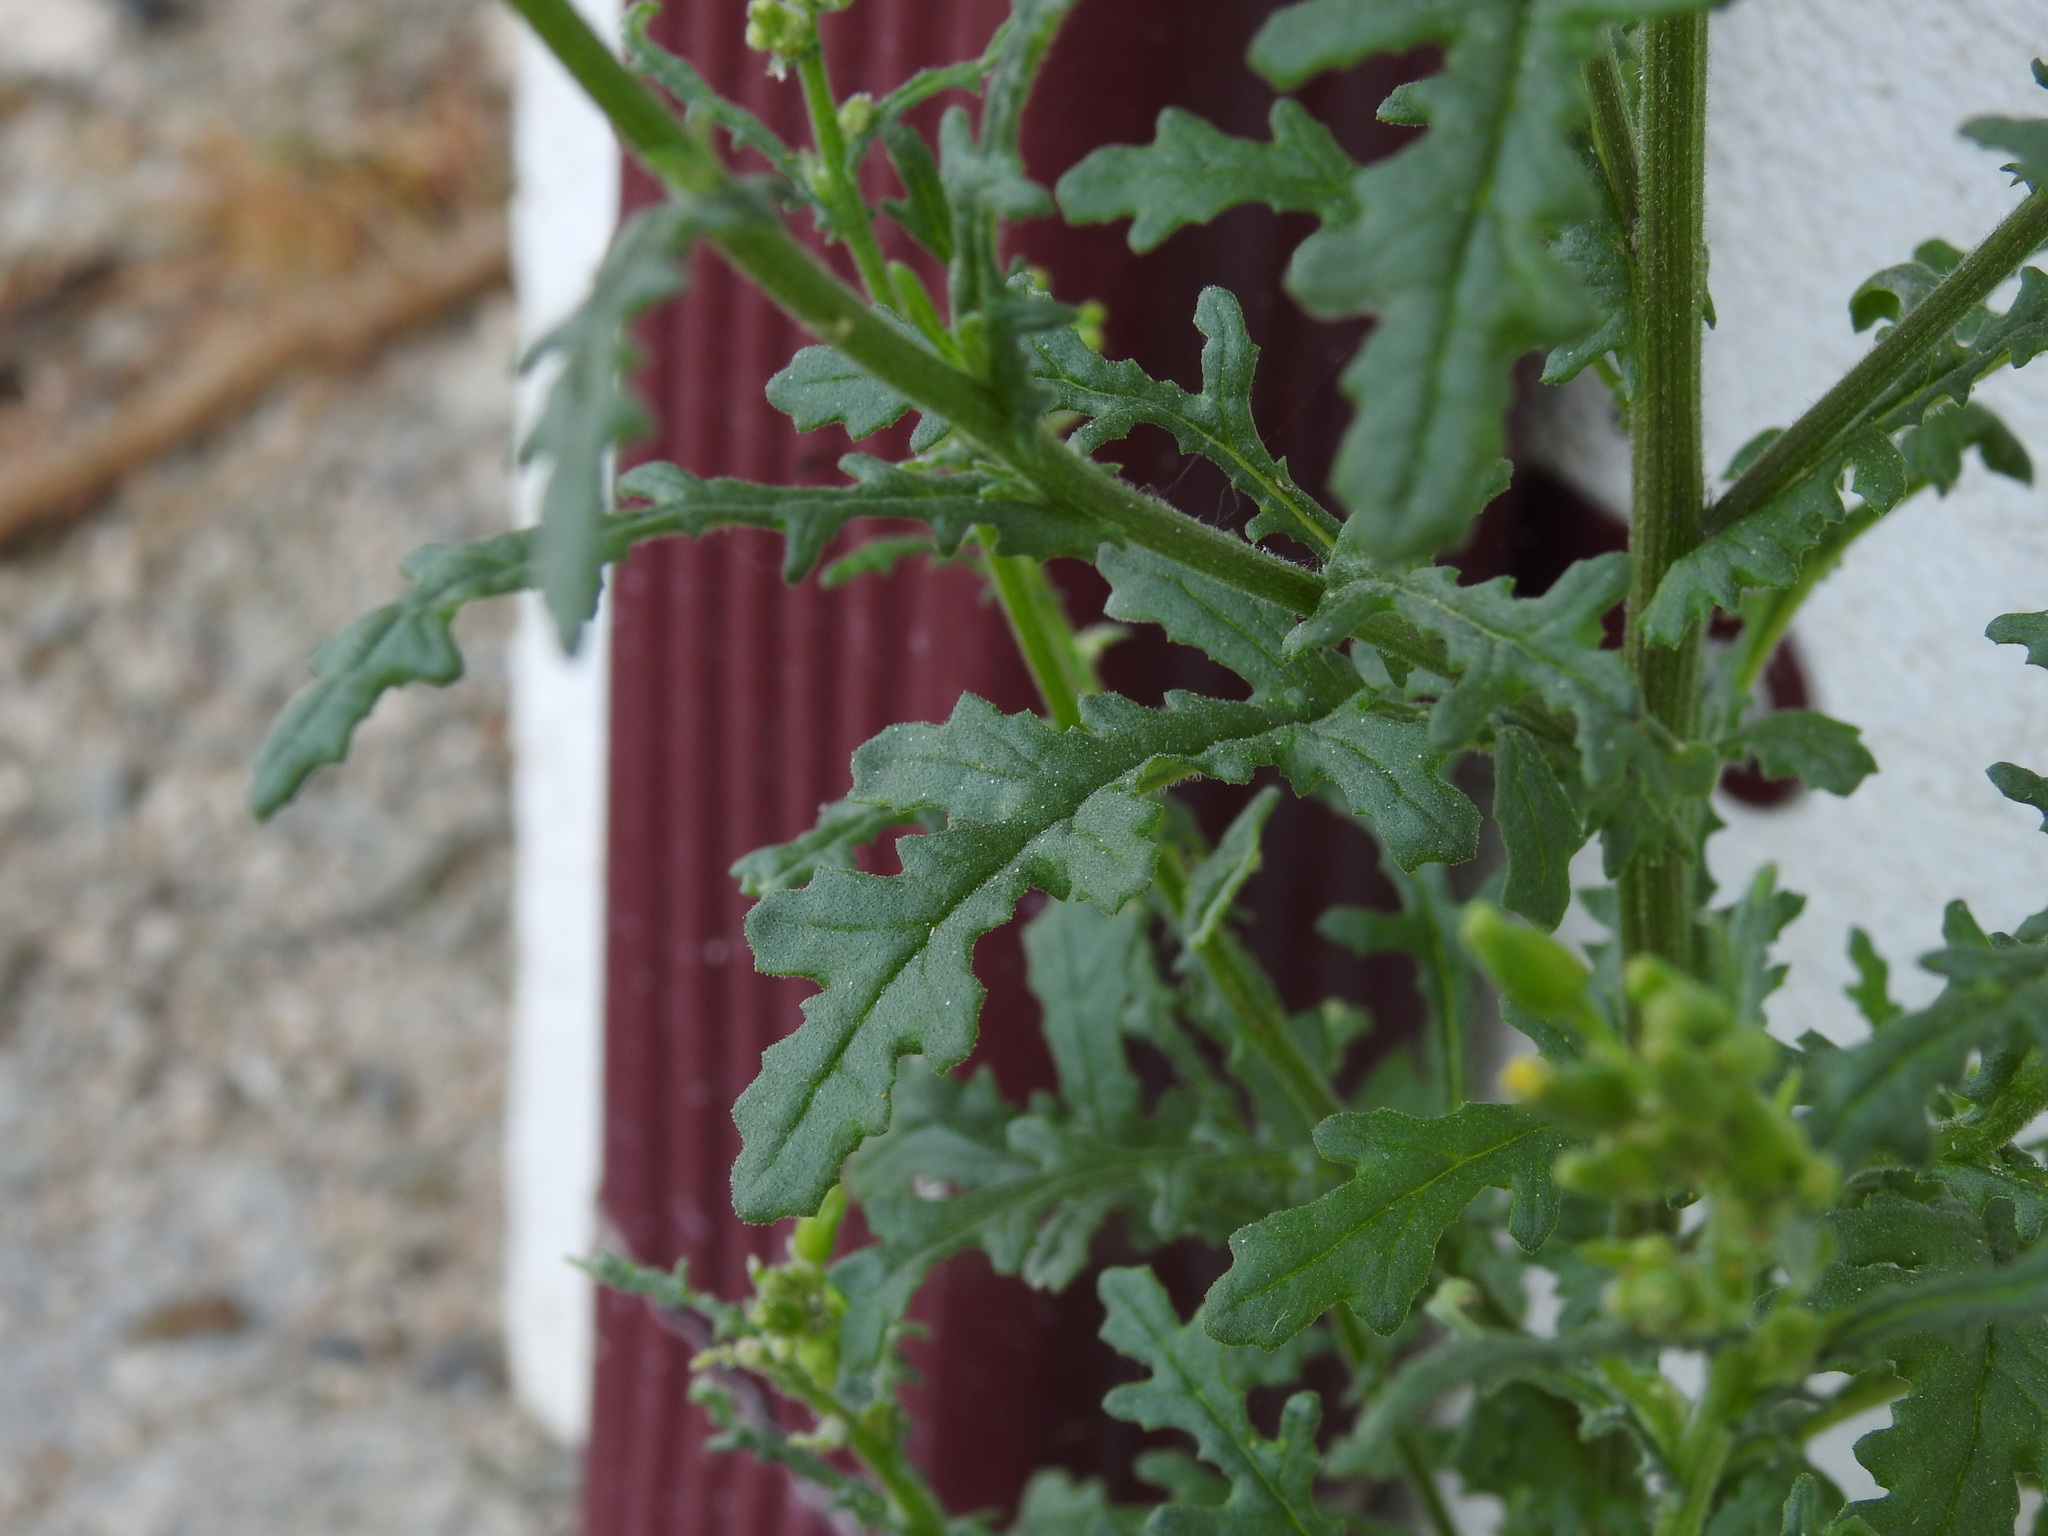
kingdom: Plantae
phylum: Tracheophyta
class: Magnoliopsida
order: Asterales
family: Asteraceae
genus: Senecio
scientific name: Senecio sylvaticus
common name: Woodland ragwort
